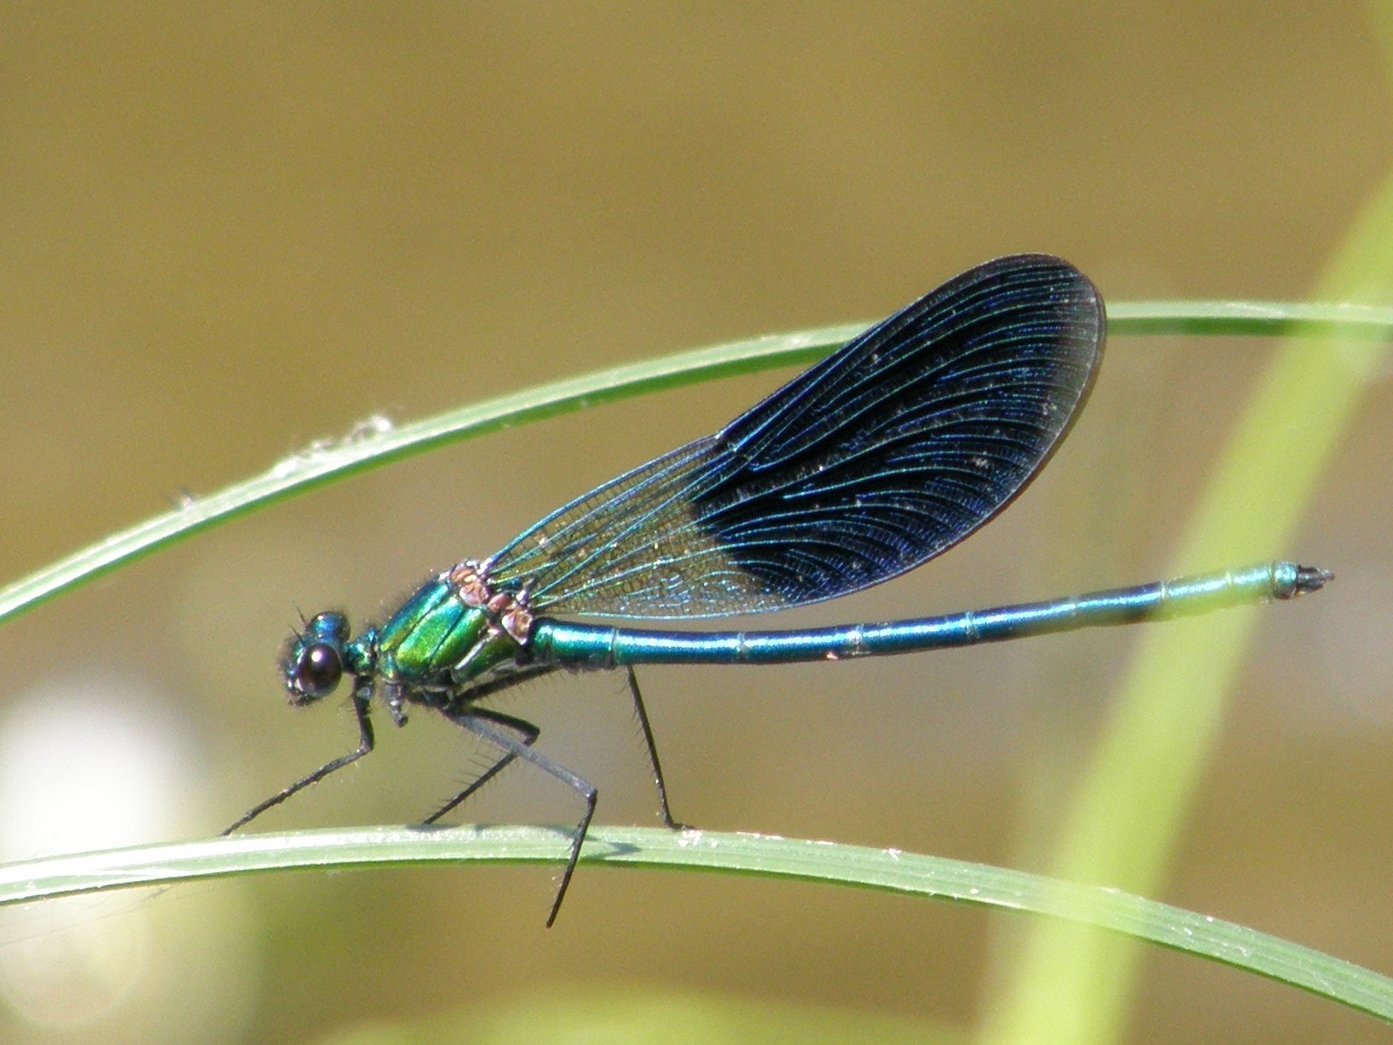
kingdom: Animalia
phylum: Arthropoda
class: Insecta
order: Odonata
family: Calopterygidae
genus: Calopteryx
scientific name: Calopteryx xanthostoma
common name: Western demoiselle
